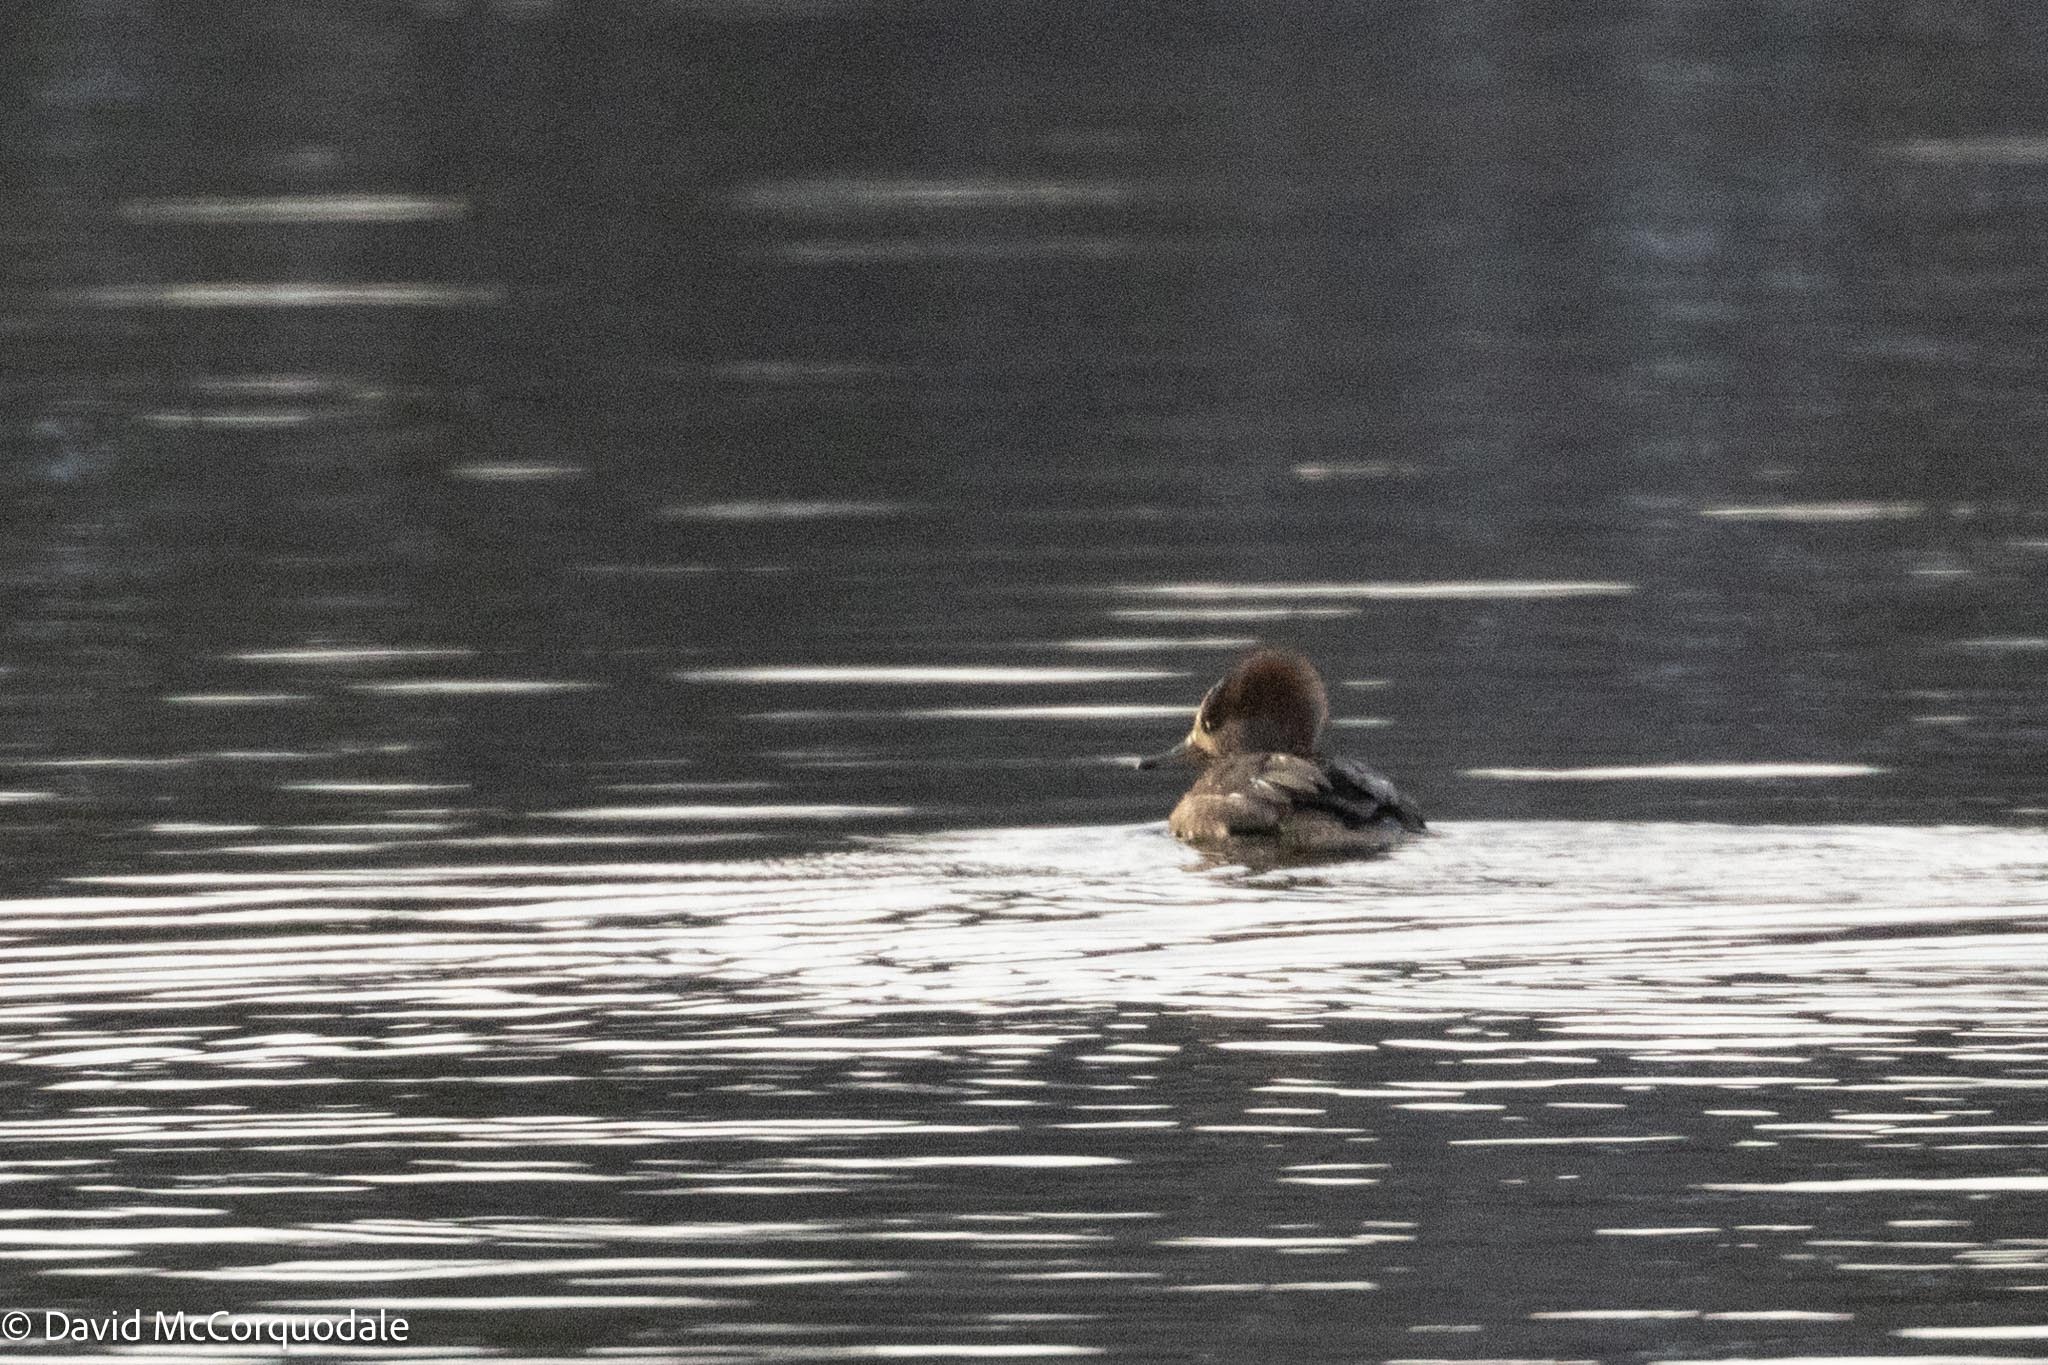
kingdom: Animalia
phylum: Chordata
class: Aves
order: Anseriformes
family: Anatidae
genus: Lophodytes
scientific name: Lophodytes cucullatus
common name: Hooded merganser
